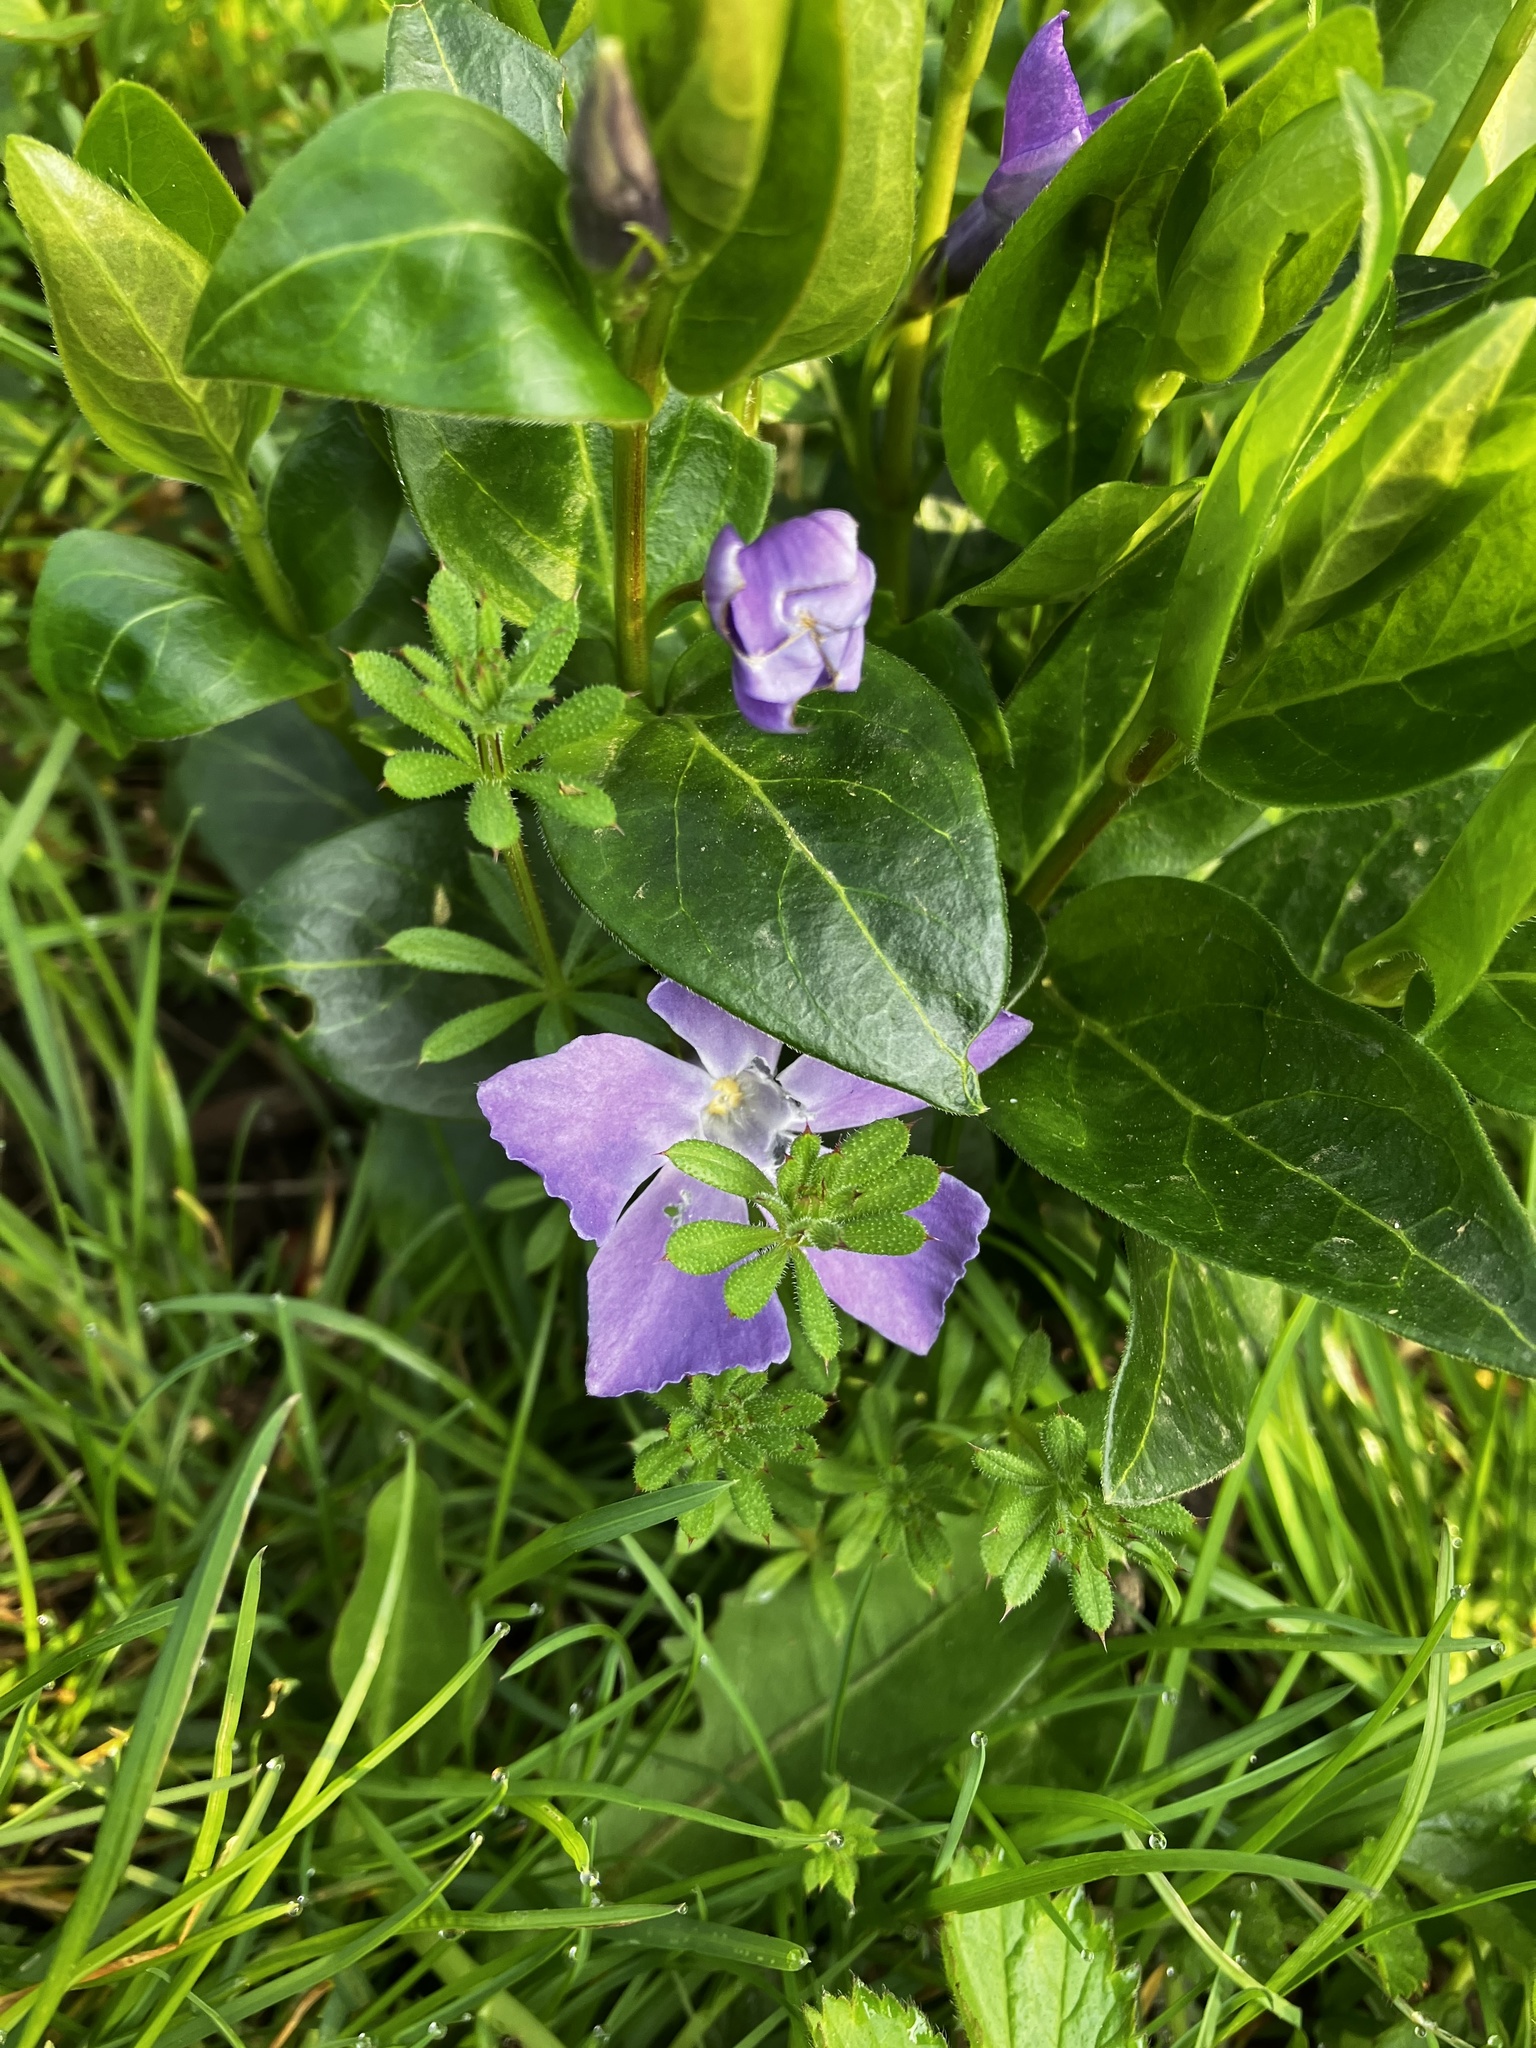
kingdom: Plantae
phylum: Tracheophyta
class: Magnoliopsida
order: Gentianales
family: Apocynaceae
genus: Vinca
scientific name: Vinca major
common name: Greater periwinkle
